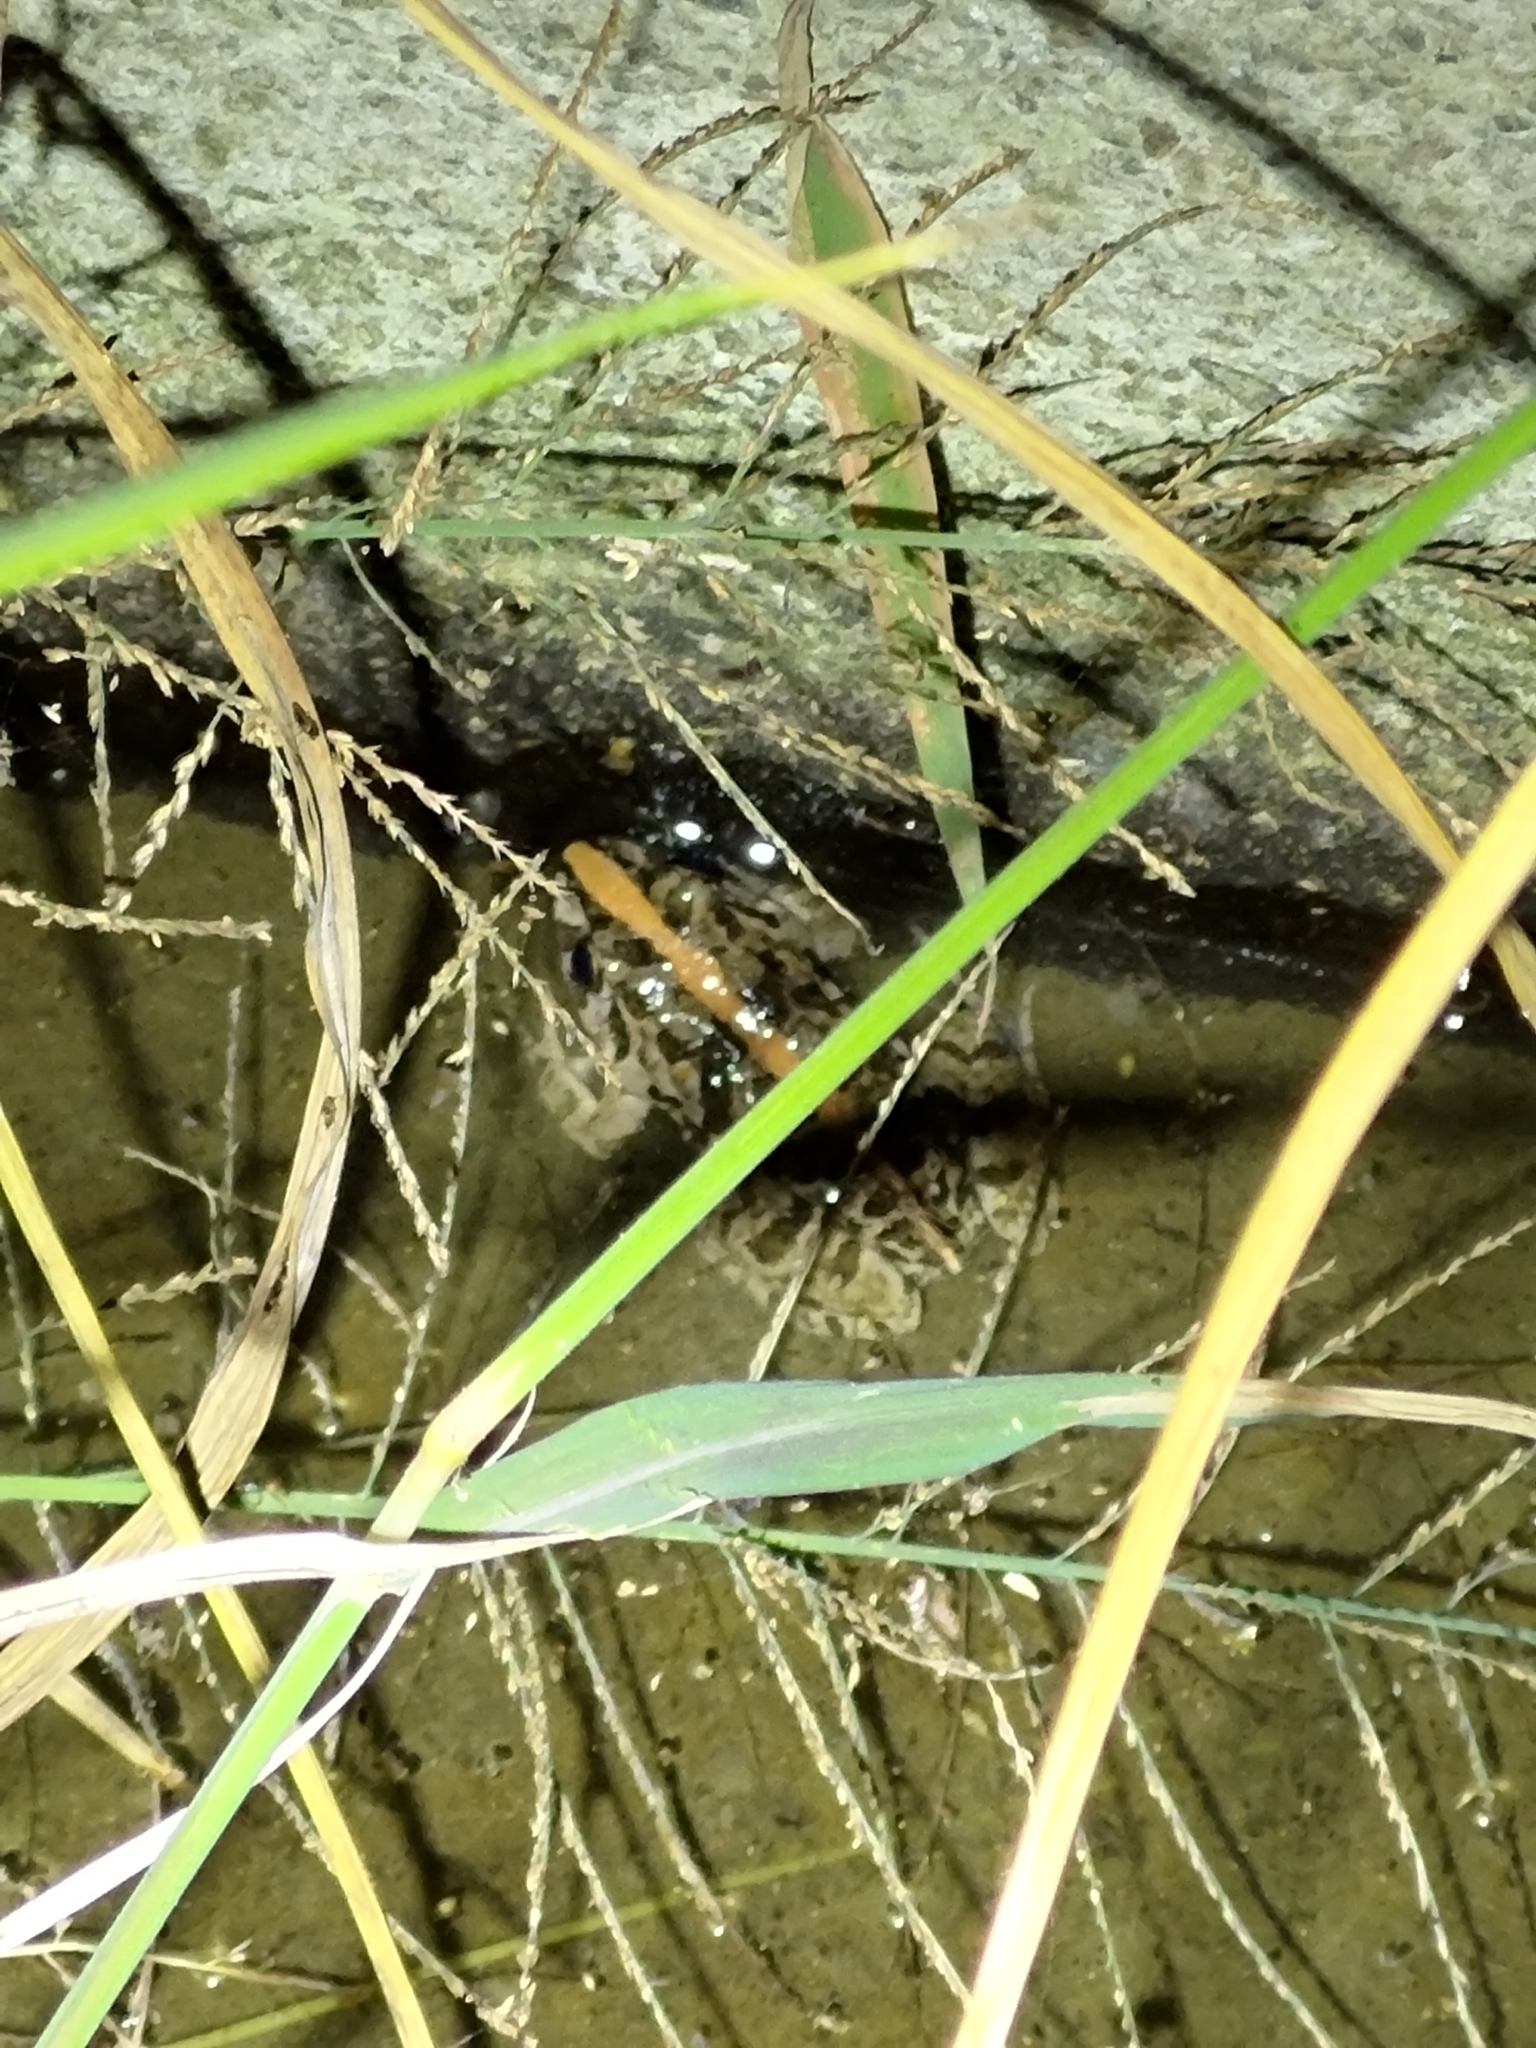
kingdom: Animalia
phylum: Chordata
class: Amphibia
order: Anura
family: Dicroglossidae
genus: Fejervarya
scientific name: Fejervarya limnocharis
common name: Asian grass frog/common pond frog/field frog/grass frog/indian rice frog
